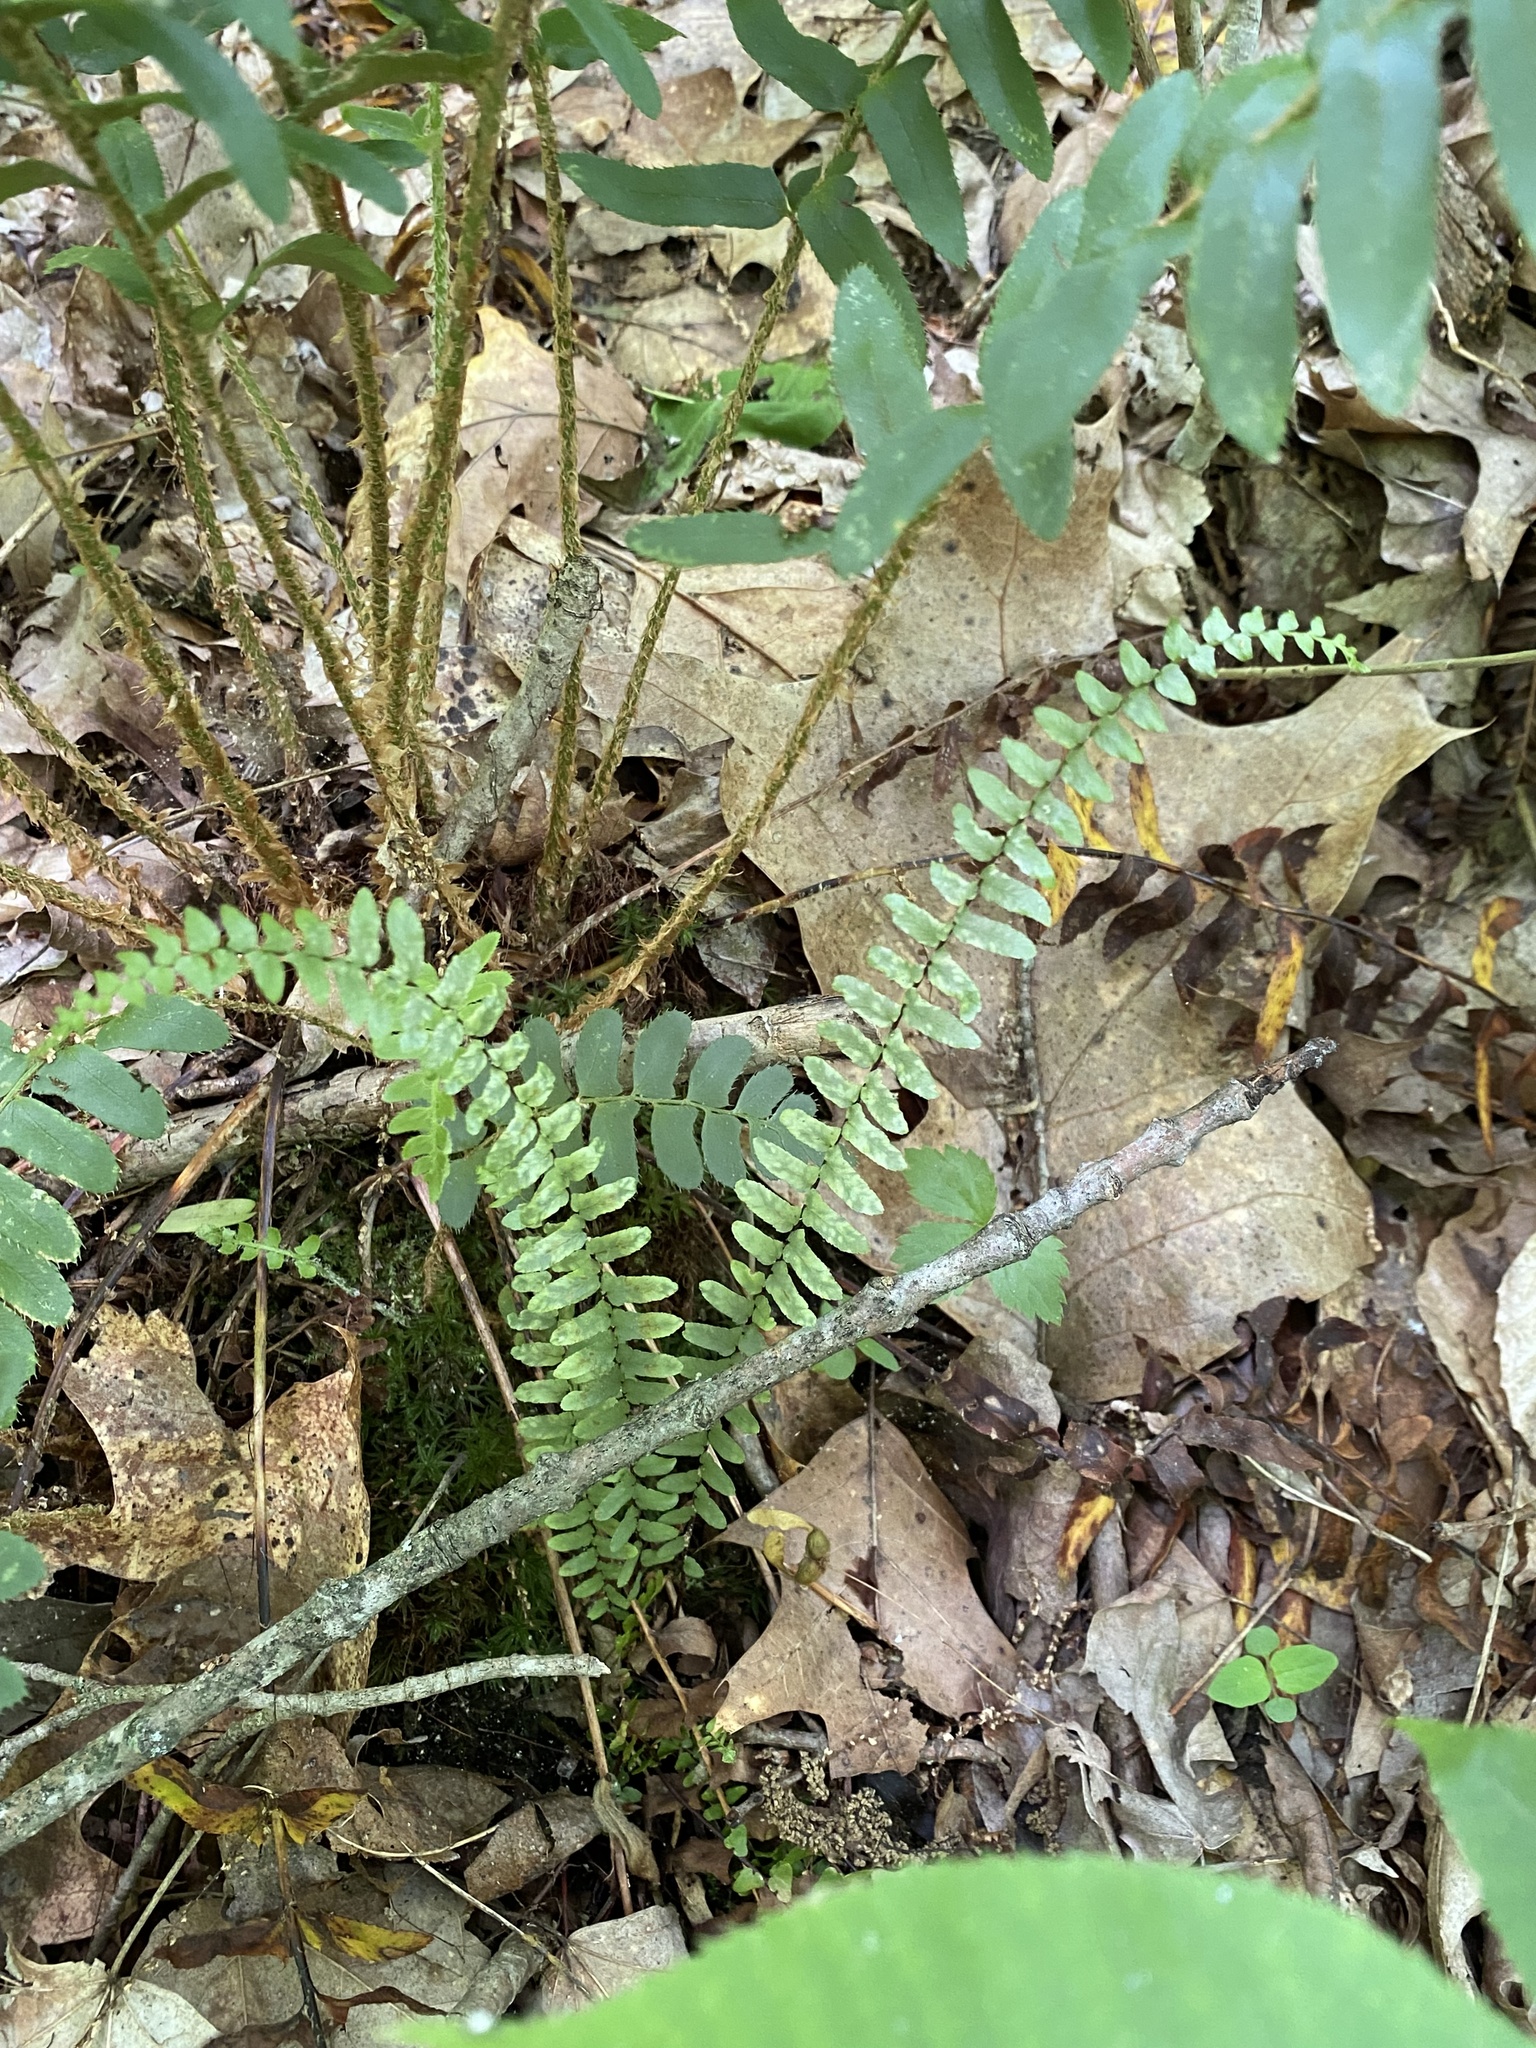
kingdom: Plantae
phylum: Tracheophyta
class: Polypodiopsida
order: Polypodiales
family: Aspleniaceae
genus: Asplenium
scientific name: Asplenium platyneuron
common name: Ebony spleenwort
